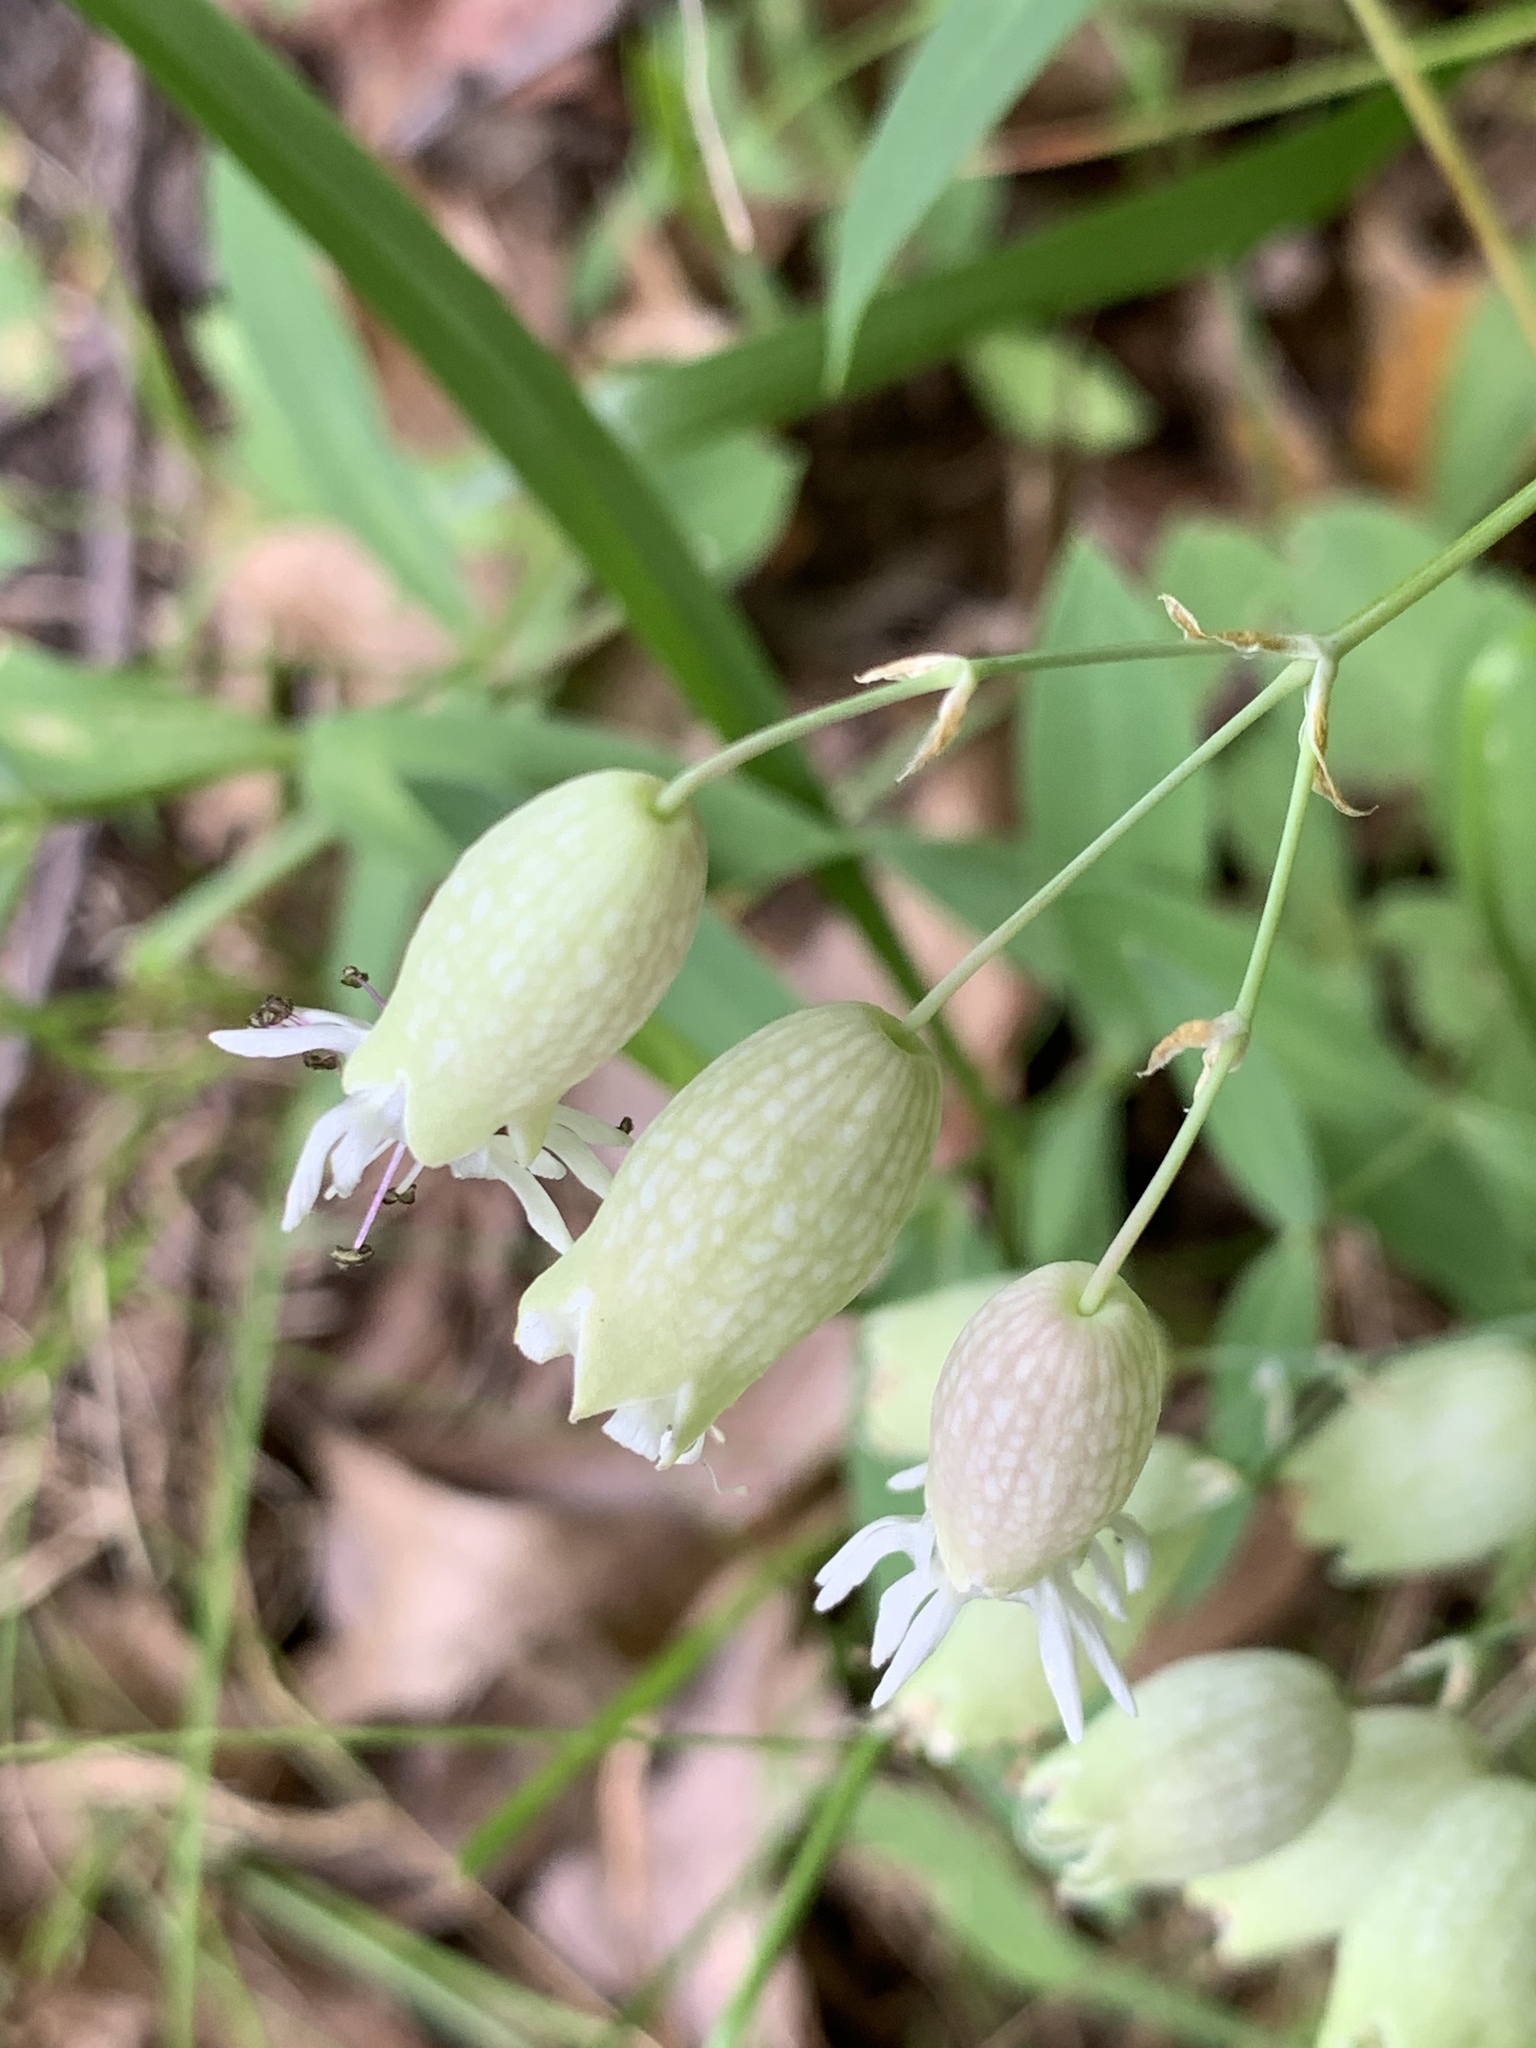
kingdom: Plantae
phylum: Tracheophyta
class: Magnoliopsida
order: Caryophyllales
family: Caryophyllaceae
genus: Silene
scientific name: Silene vulgaris
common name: Bladder campion
